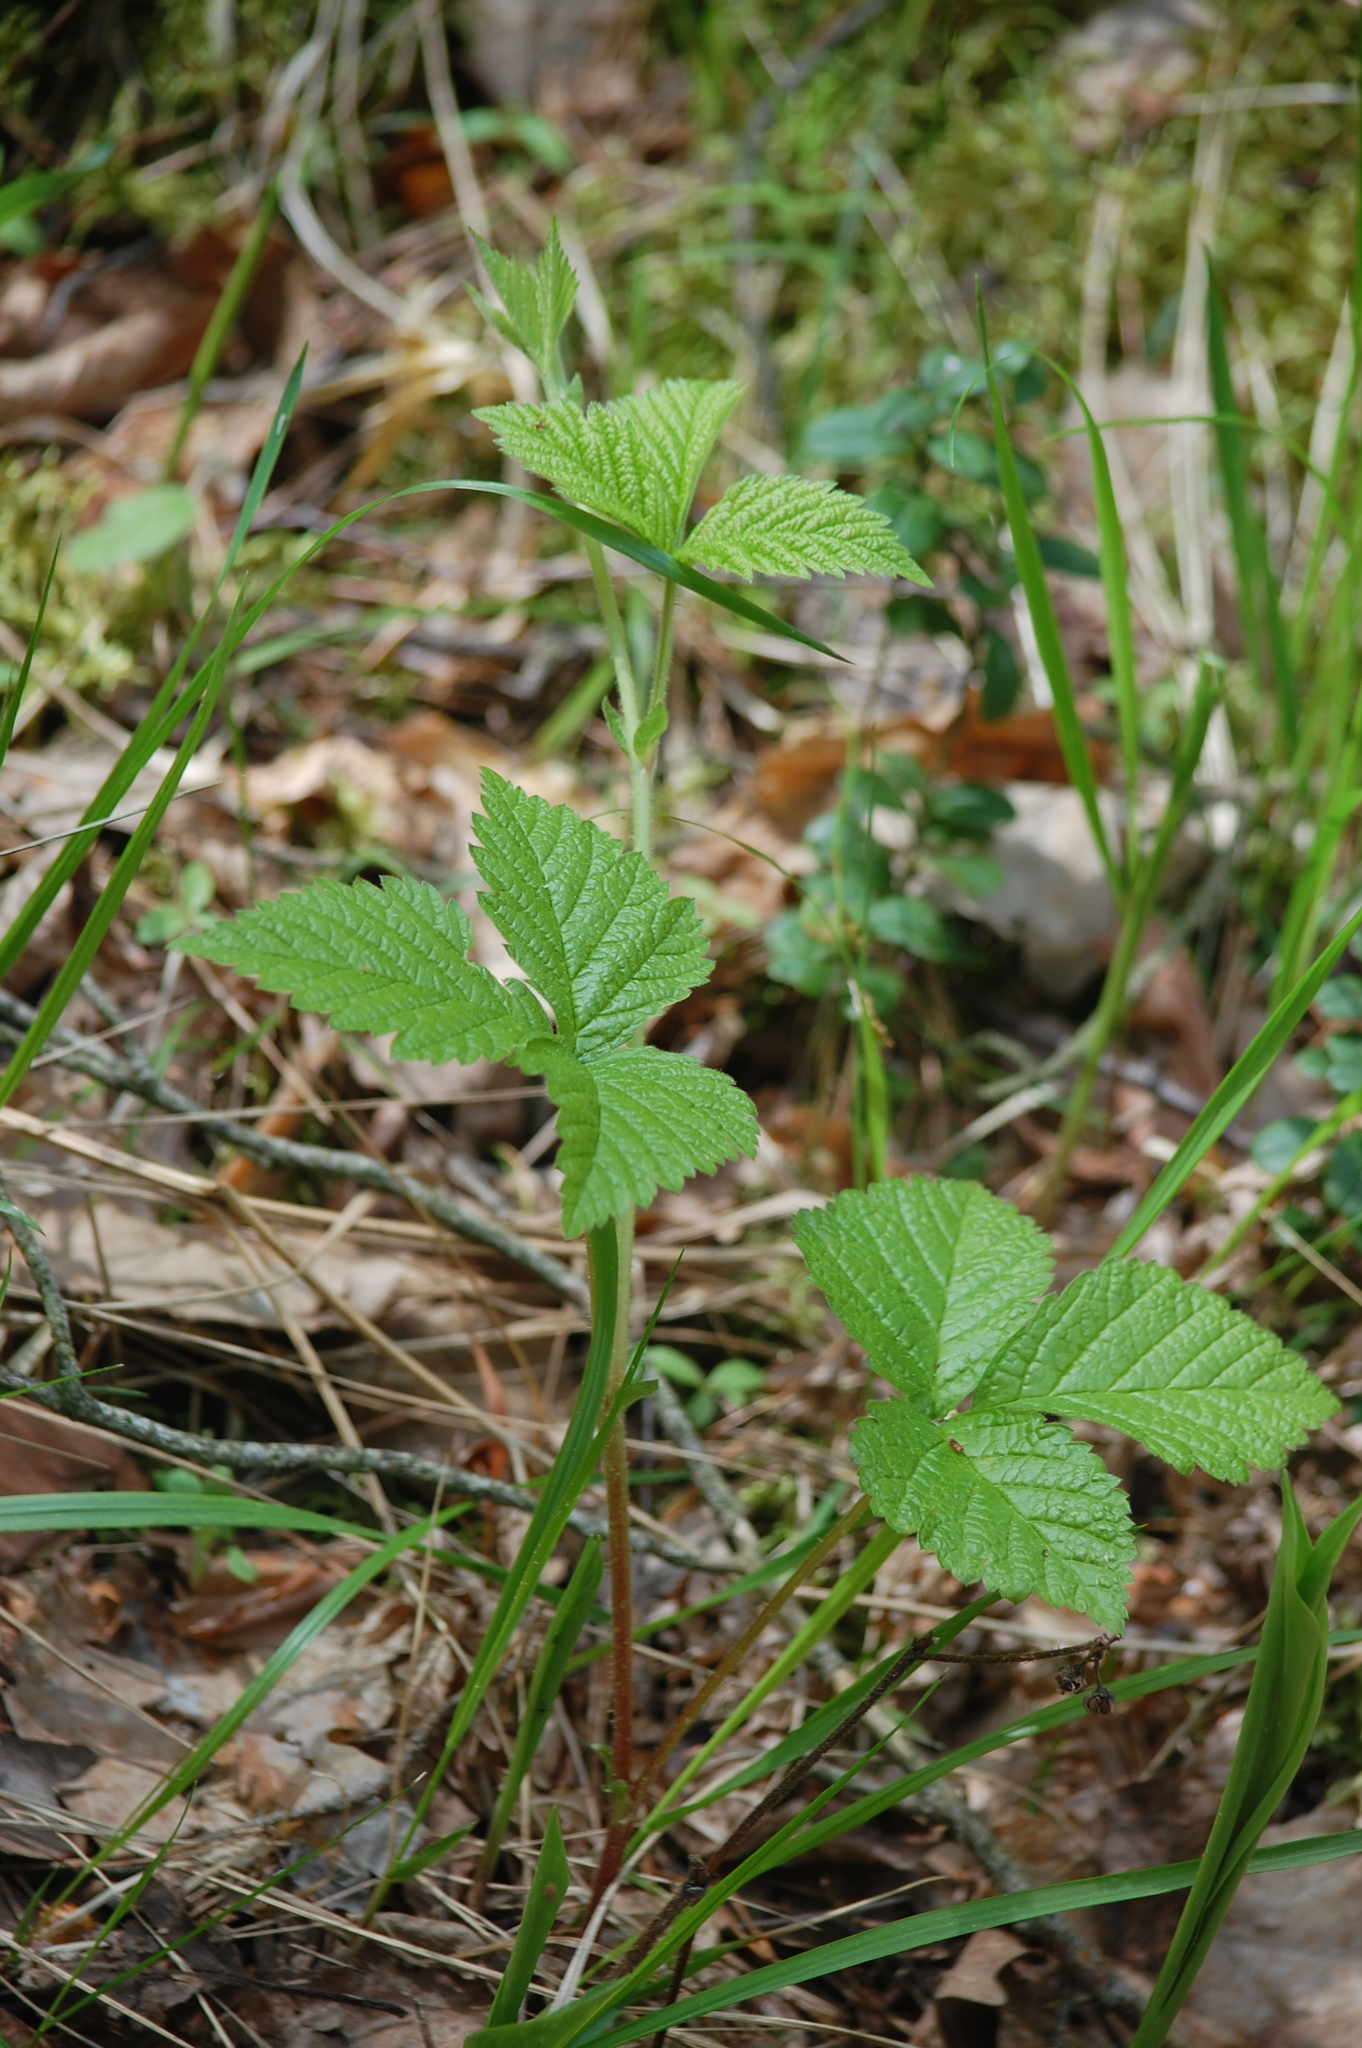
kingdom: Plantae
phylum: Tracheophyta
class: Magnoliopsida
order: Rosales
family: Rosaceae
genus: Rubus
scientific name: Rubus saxatilis
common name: Stone bramble
